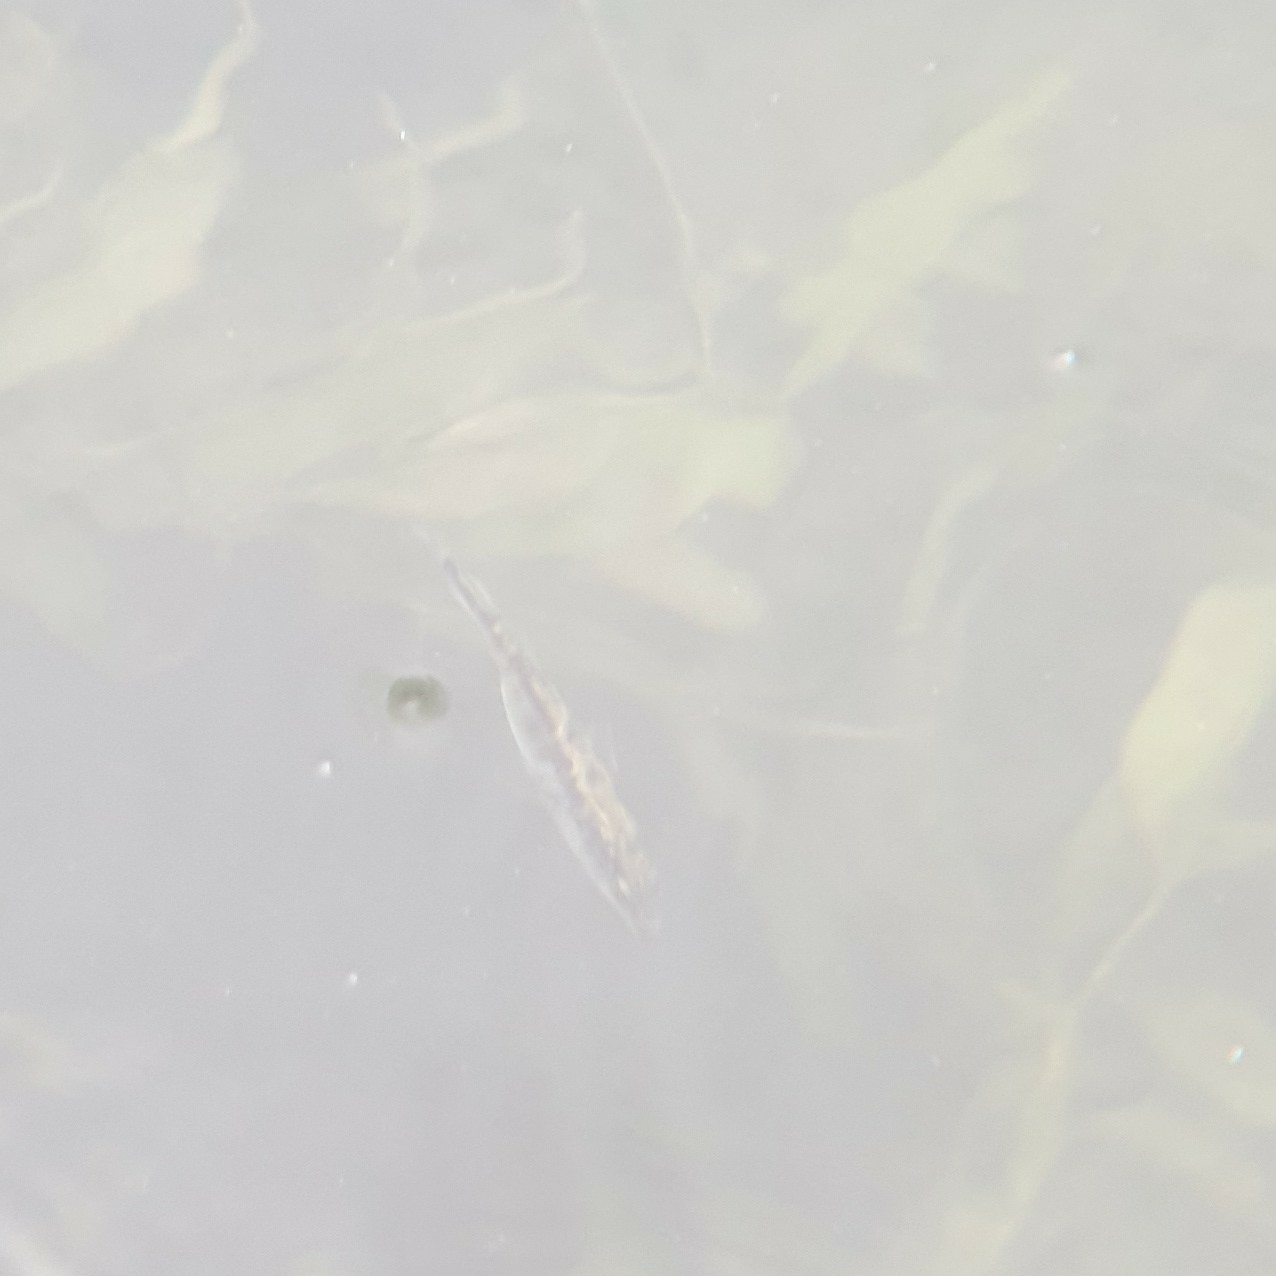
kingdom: Animalia
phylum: Chordata
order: Gasterosteiformes
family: Gasterosteidae
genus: Gasterosteus
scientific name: Gasterosteus aculeatus
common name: Three-spined stickleback
